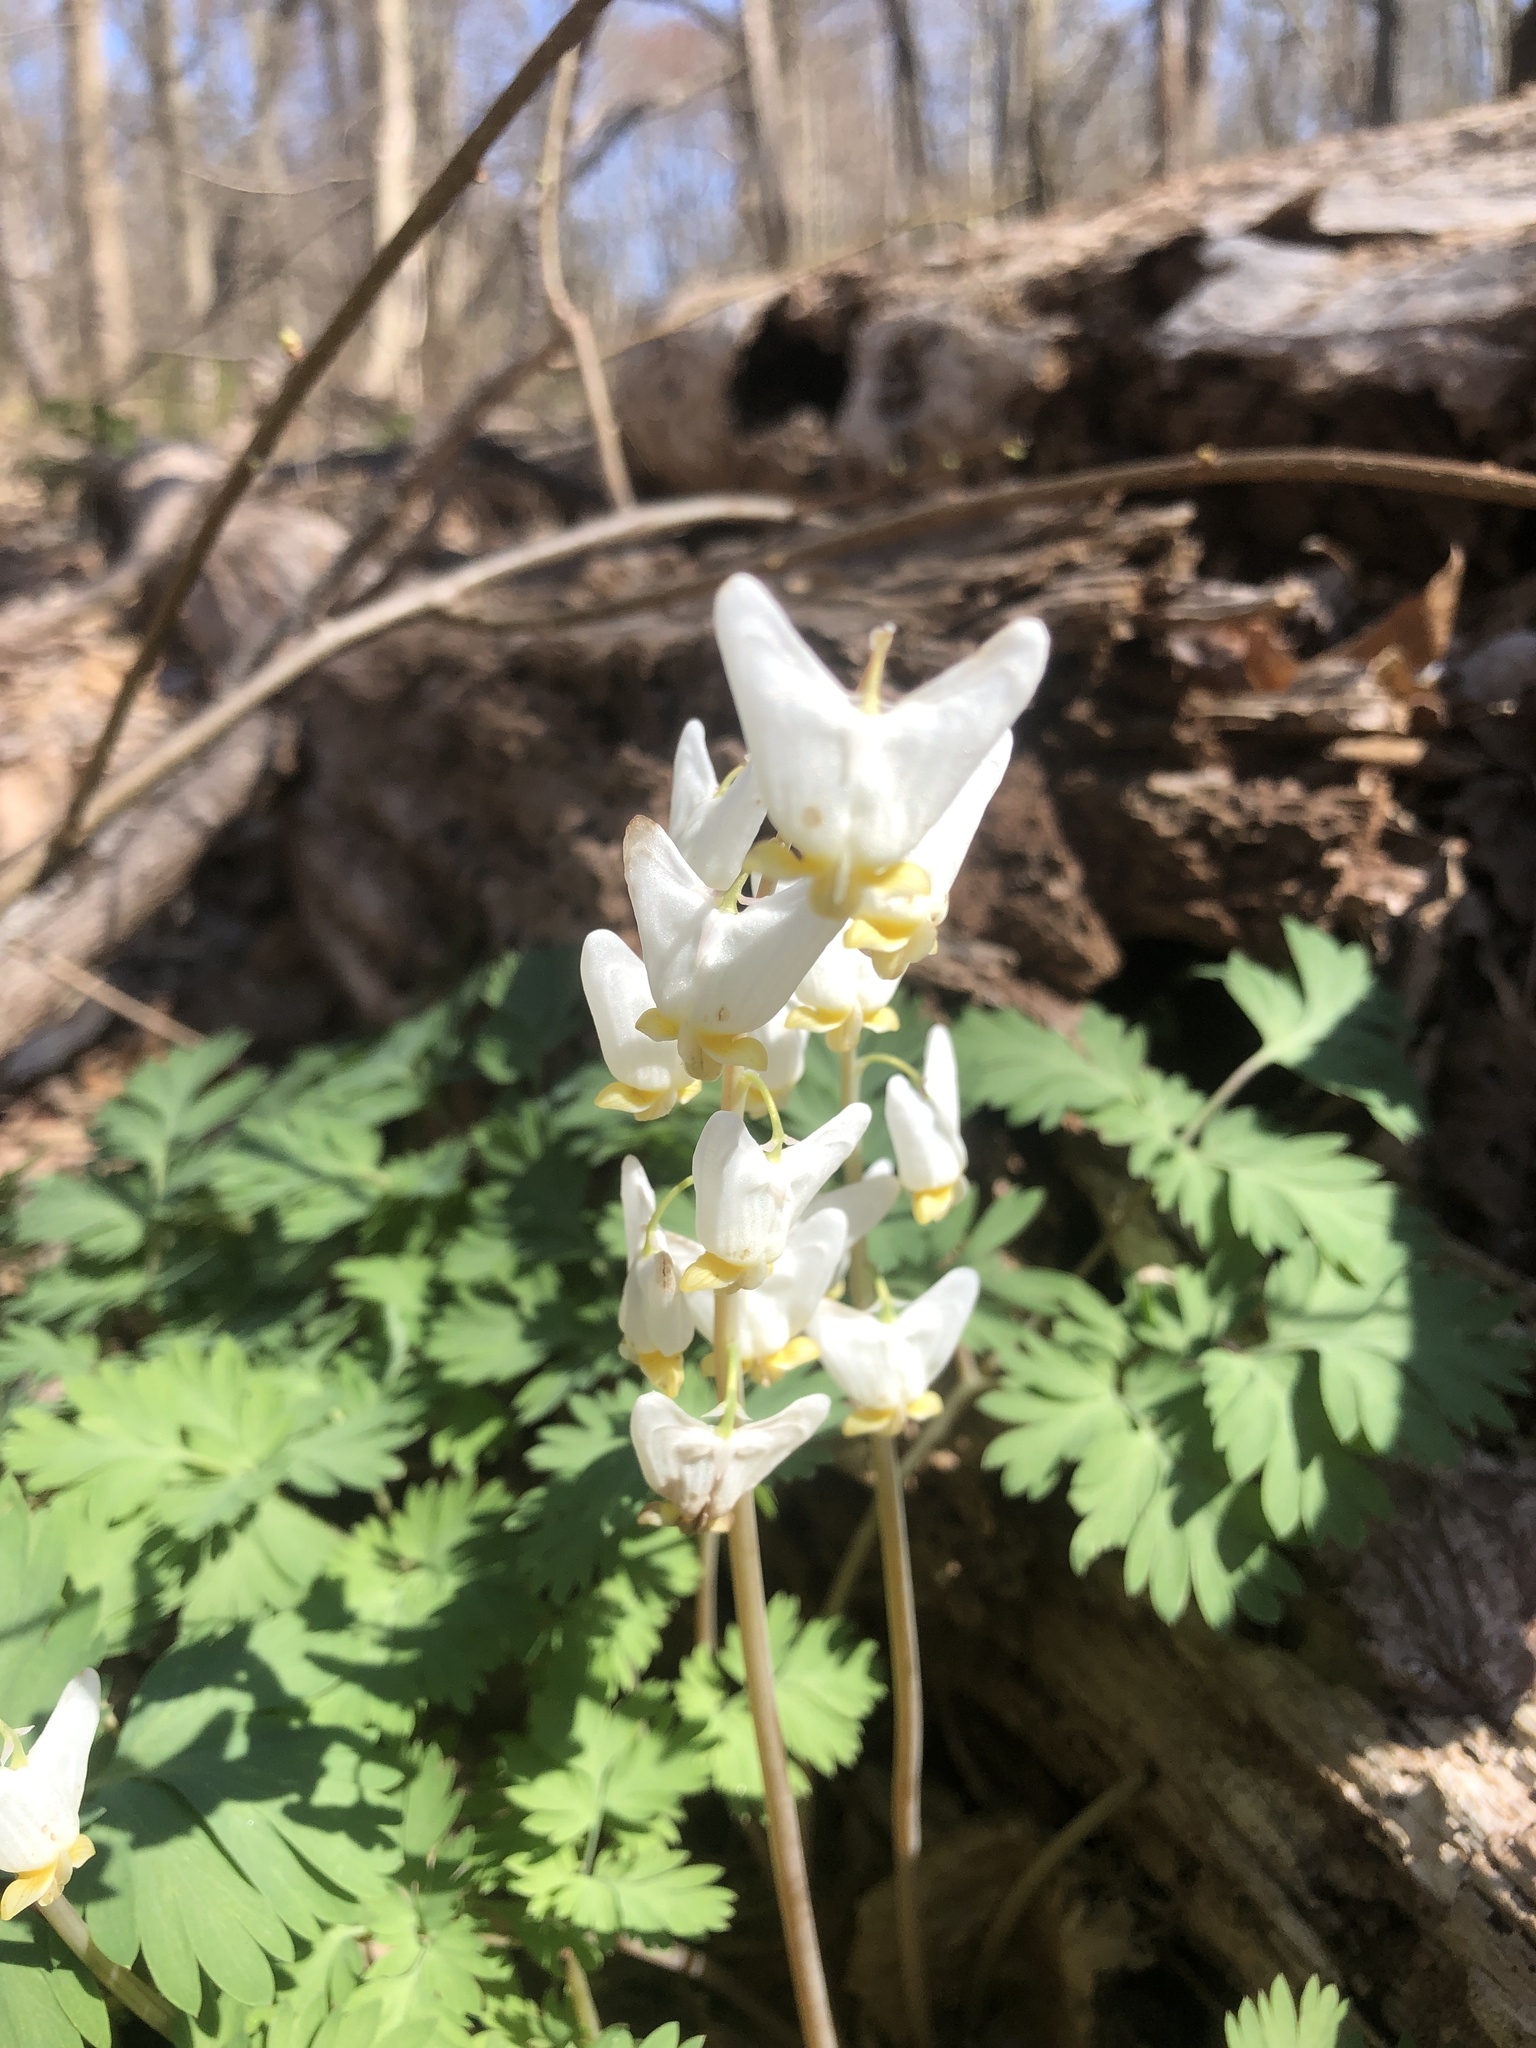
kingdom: Plantae
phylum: Tracheophyta
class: Magnoliopsida
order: Ranunculales
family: Papaveraceae
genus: Dicentra
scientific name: Dicentra cucullaria
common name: Dutchman's breeches
